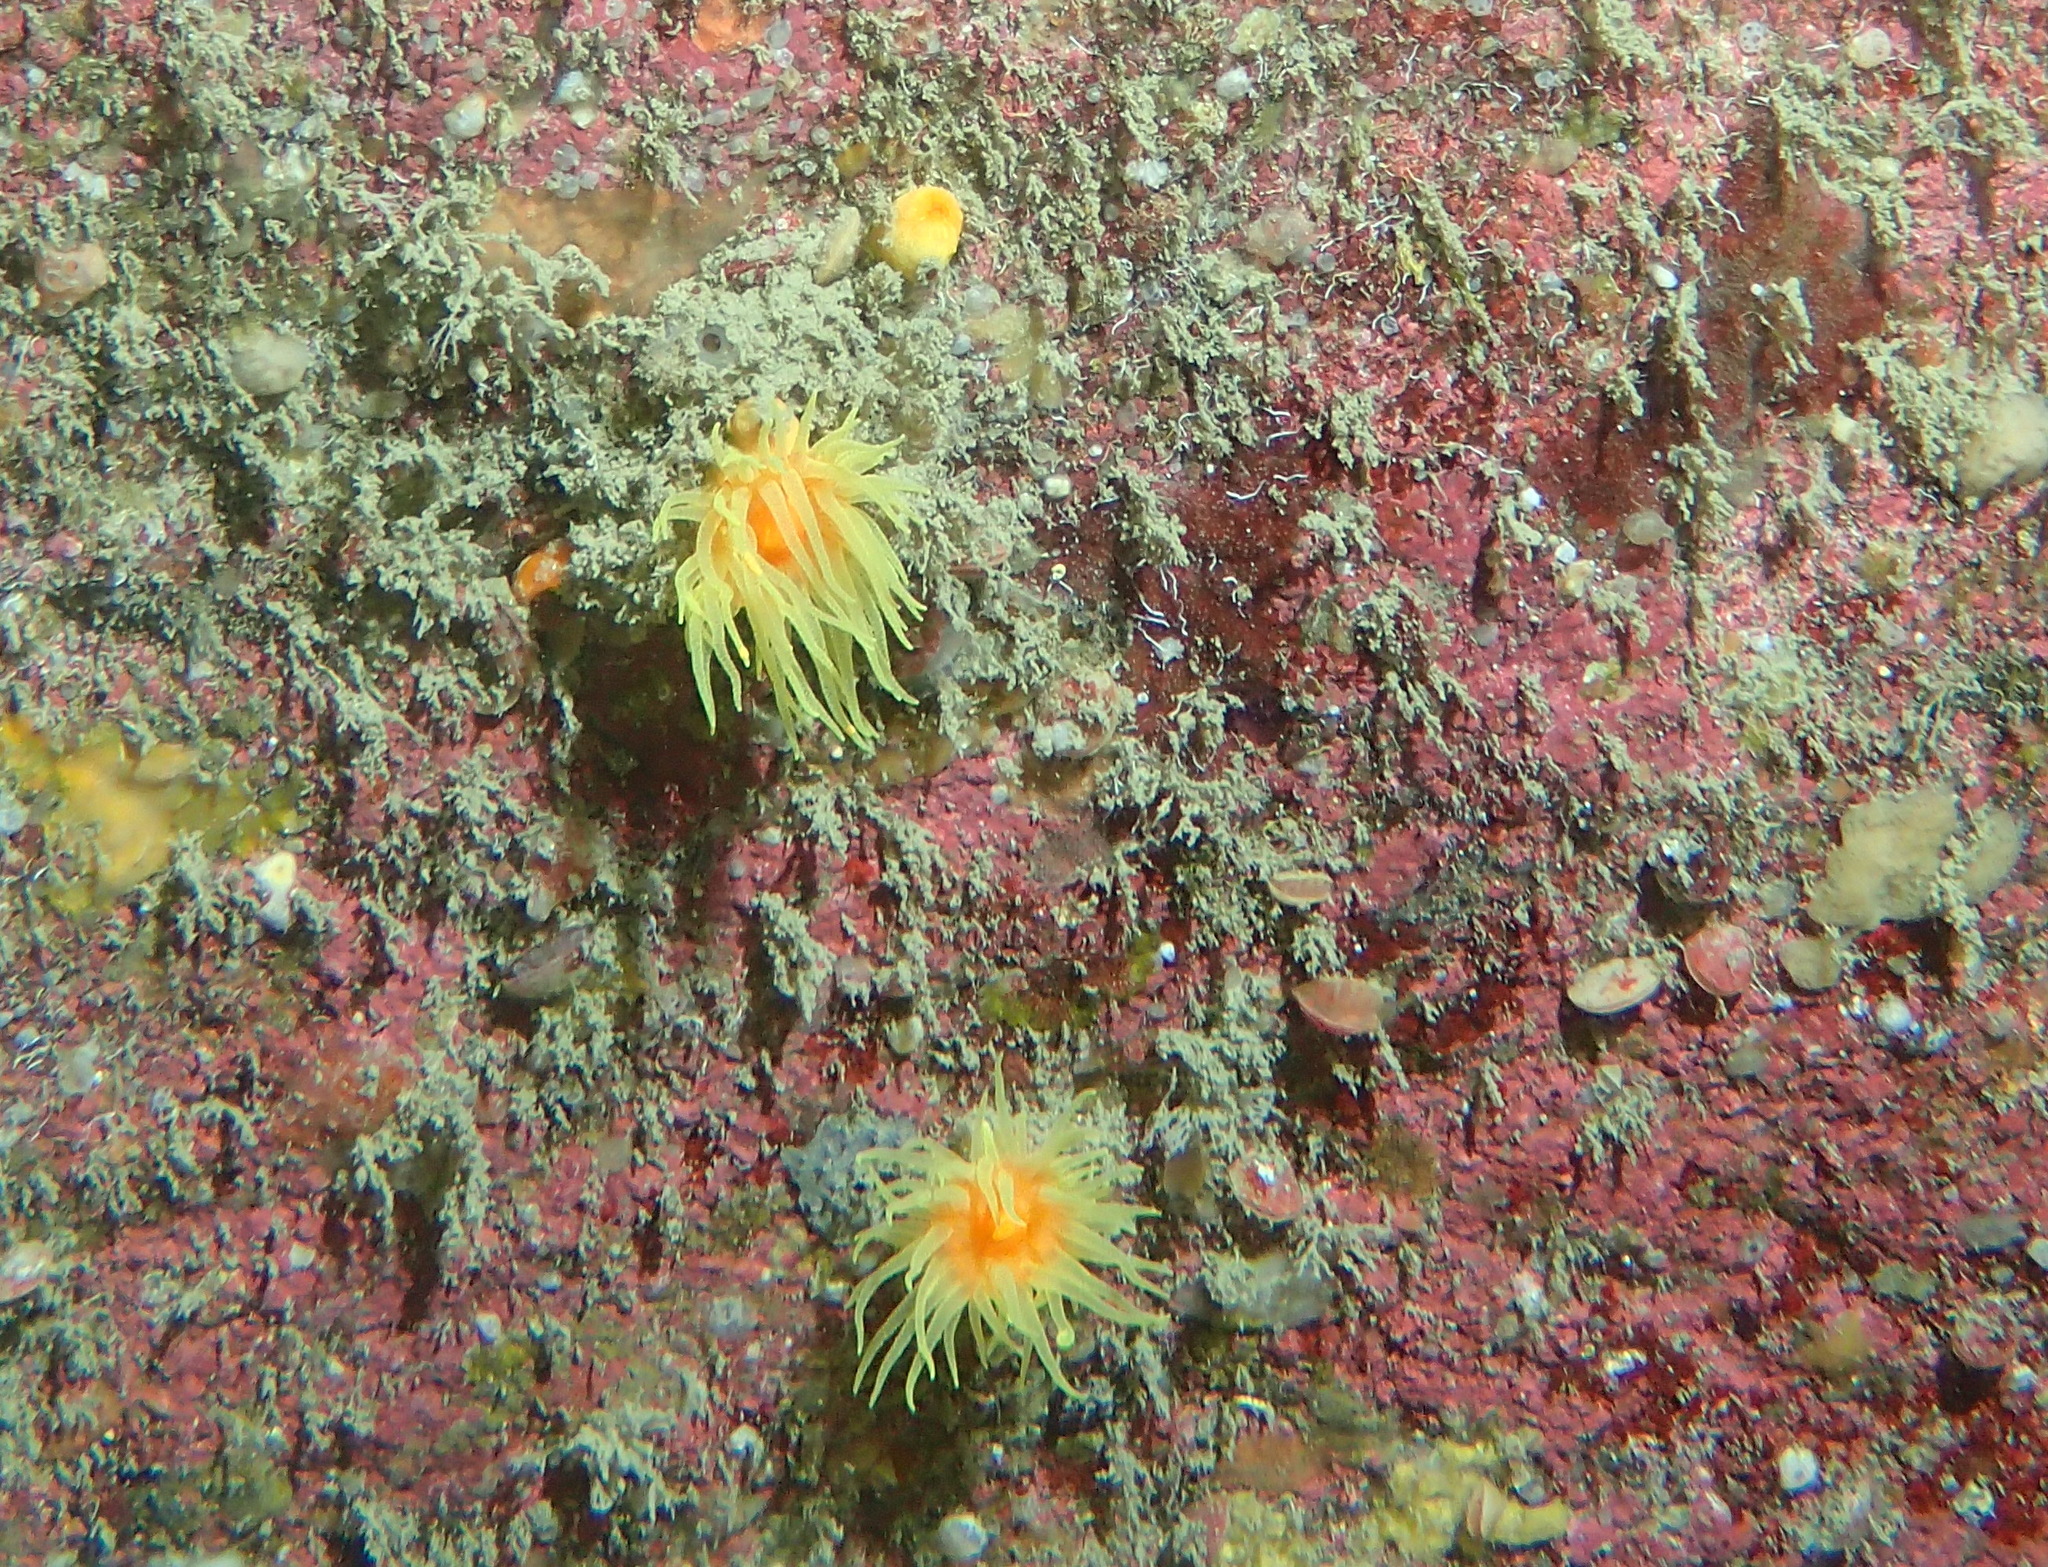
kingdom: Animalia
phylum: Cnidaria
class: Anthozoa
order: Scleractinia
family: Dendrophylliidae
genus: Leptopsammia
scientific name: Leptopsammia pruvoti
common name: Sunset cup coral
